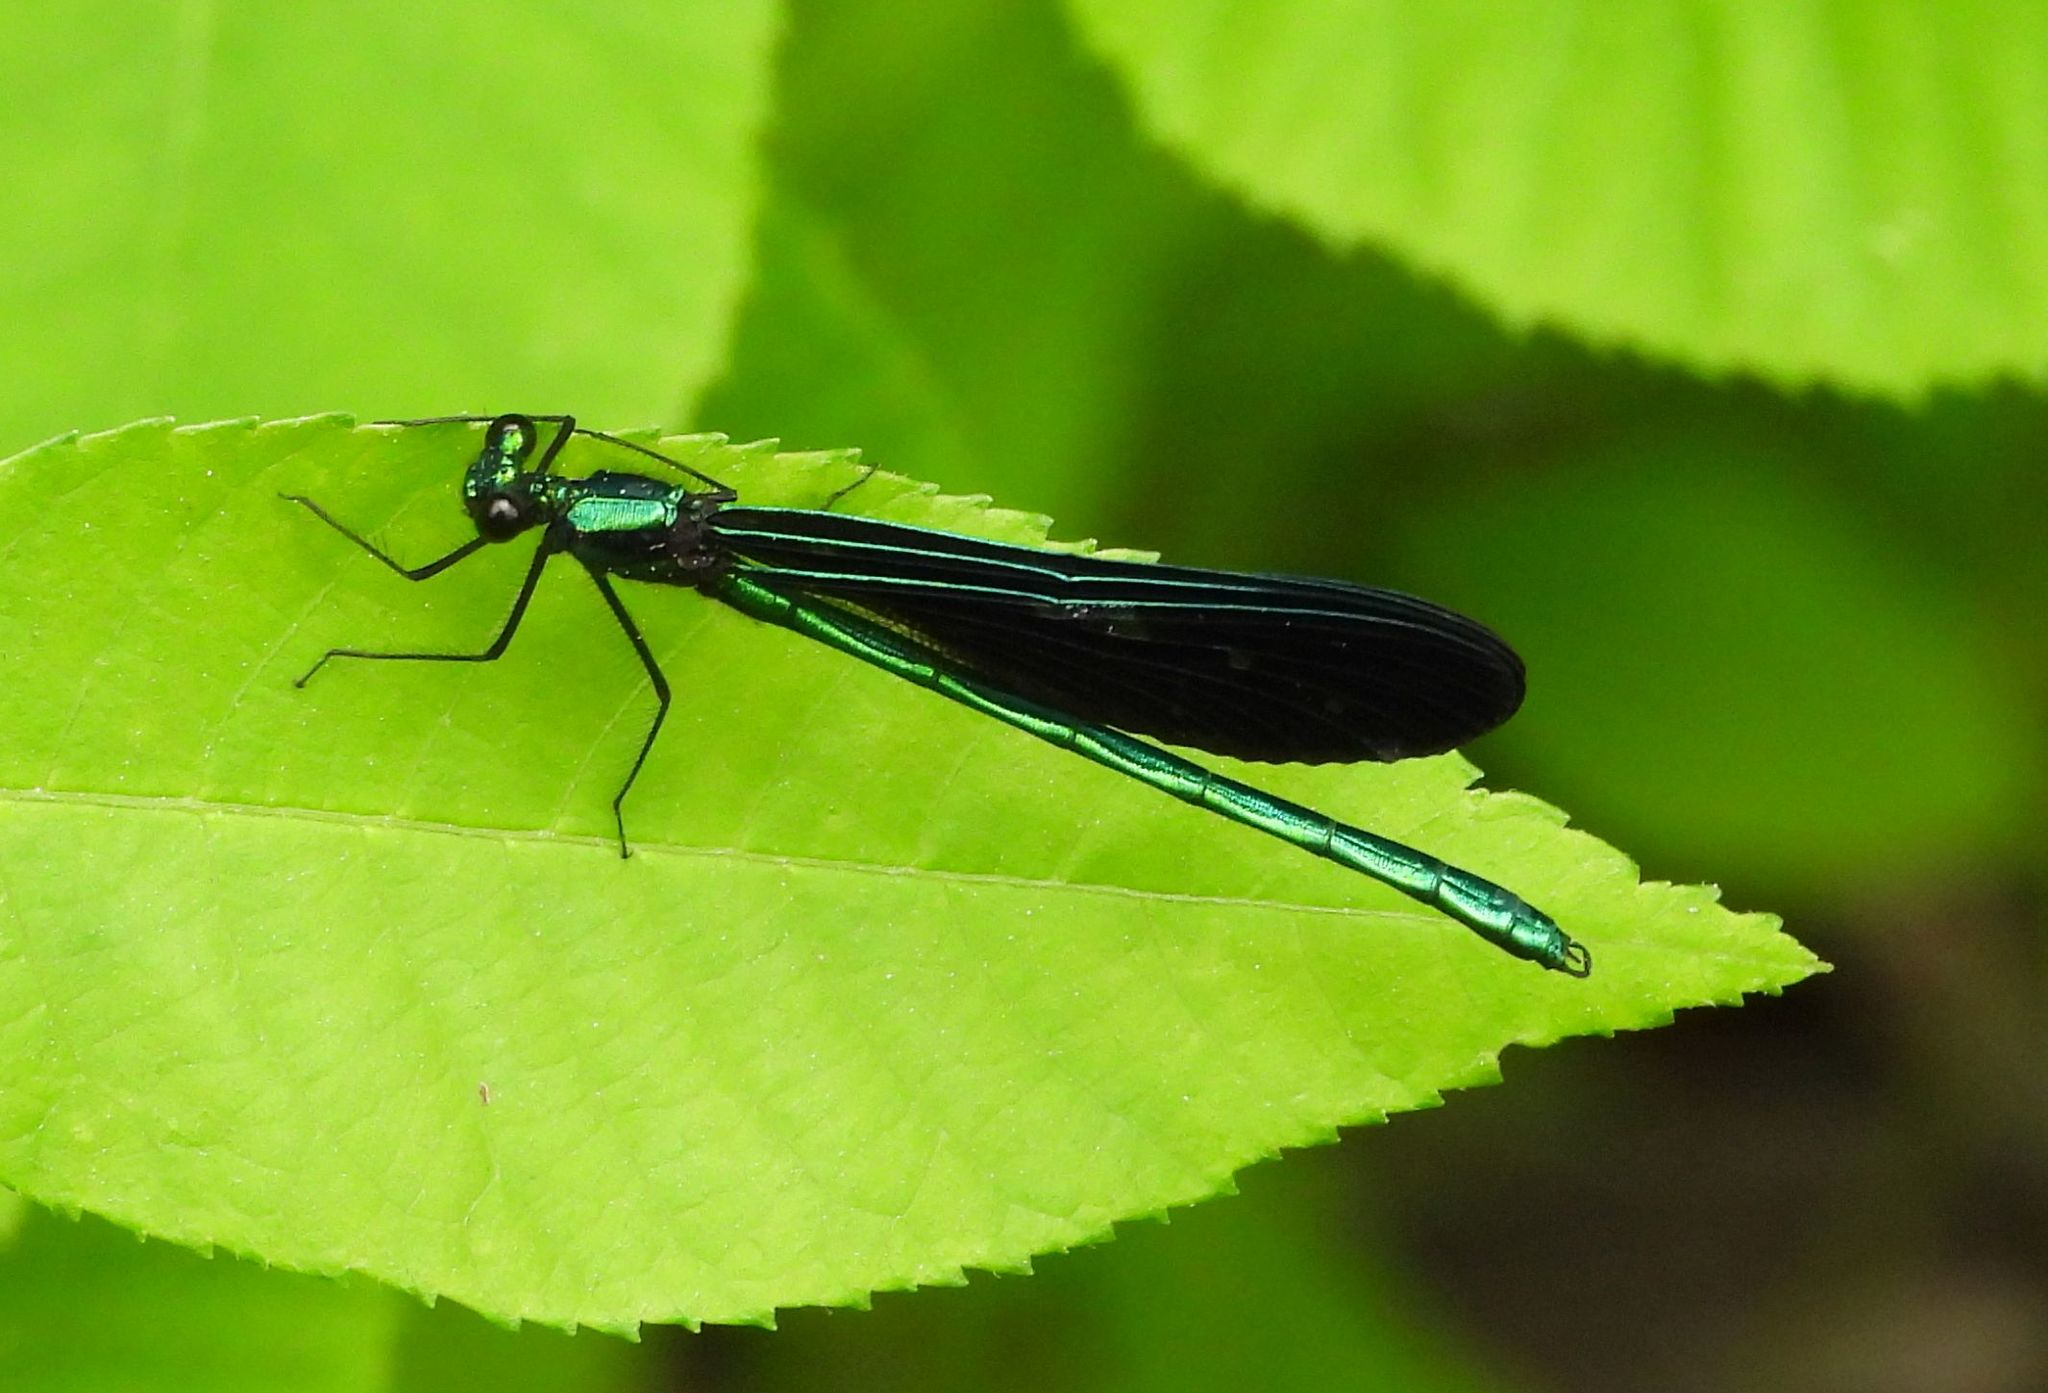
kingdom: Animalia
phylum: Arthropoda
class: Insecta
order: Odonata
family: Calopterygidae
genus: Calopteryx
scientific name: Calopteryx maculata
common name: Ebony jewelwing
